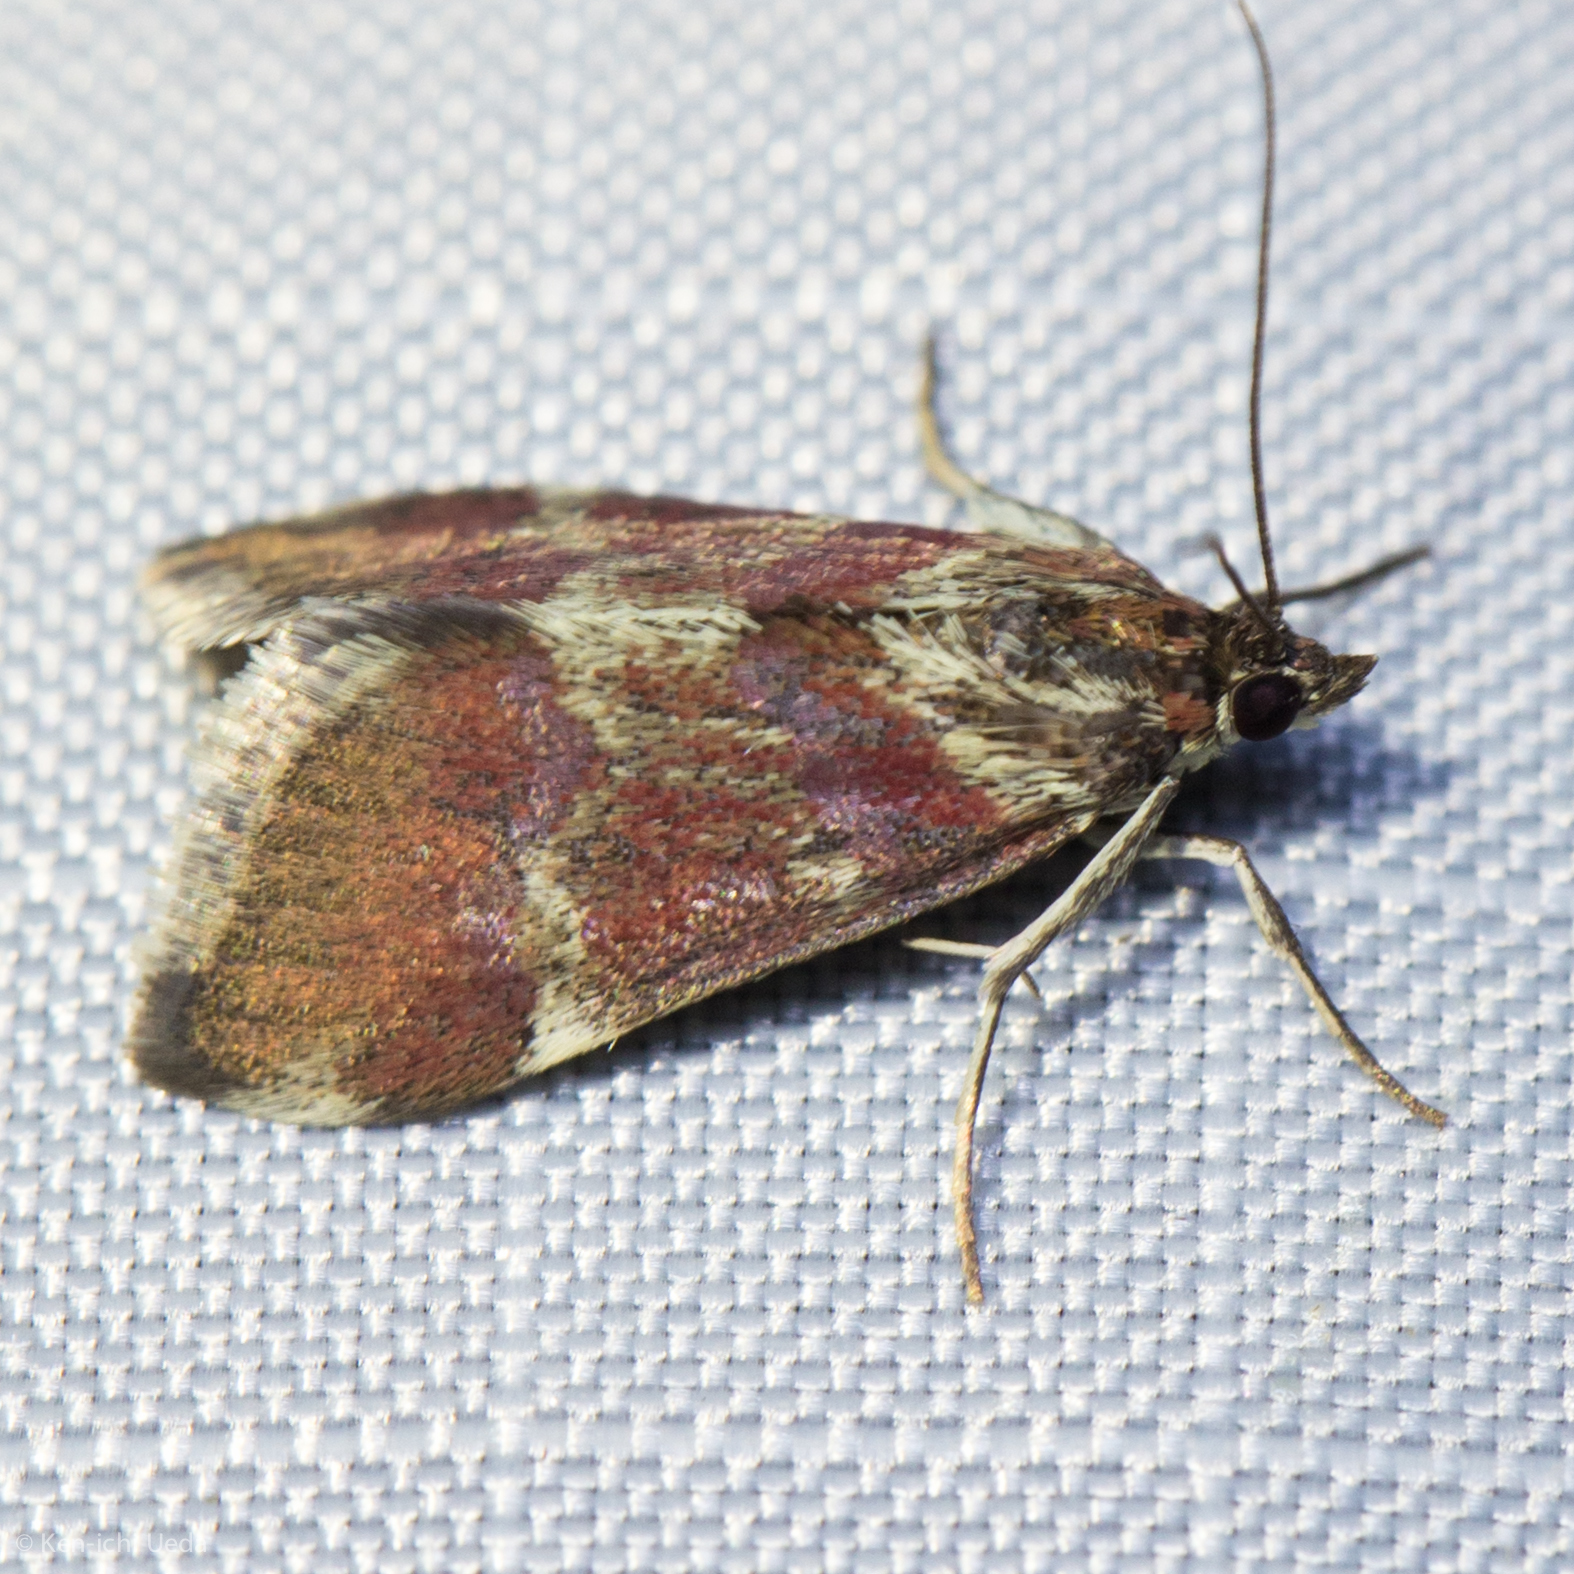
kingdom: Animalia
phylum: Arthropoda
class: Insecta
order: Lepidoptera
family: Crambidae
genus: Noctuelia
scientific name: Noctuelia Mimoschinia rufofascialis
